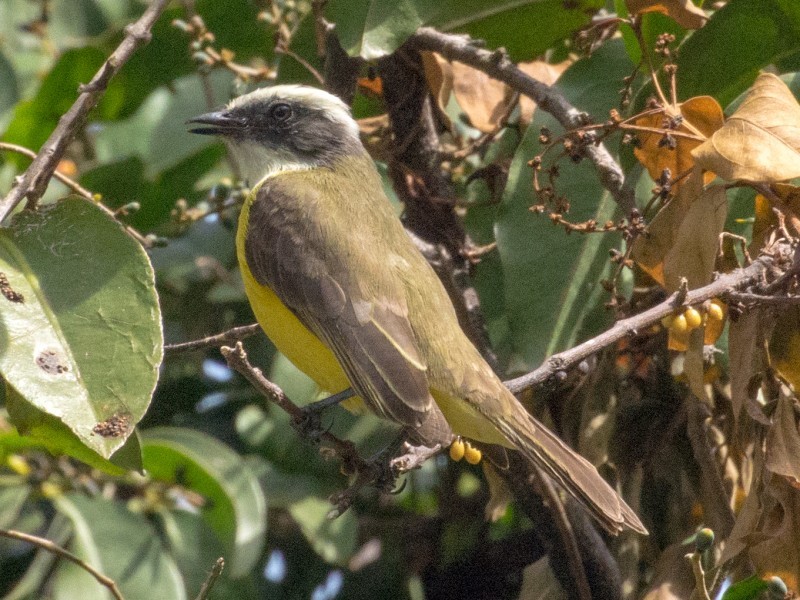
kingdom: Animalia
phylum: Chordata
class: Aves
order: Passeriformes
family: Tyrannidae
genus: Myiozetetes
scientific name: Myiozetetes similis
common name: Social flycatcher
